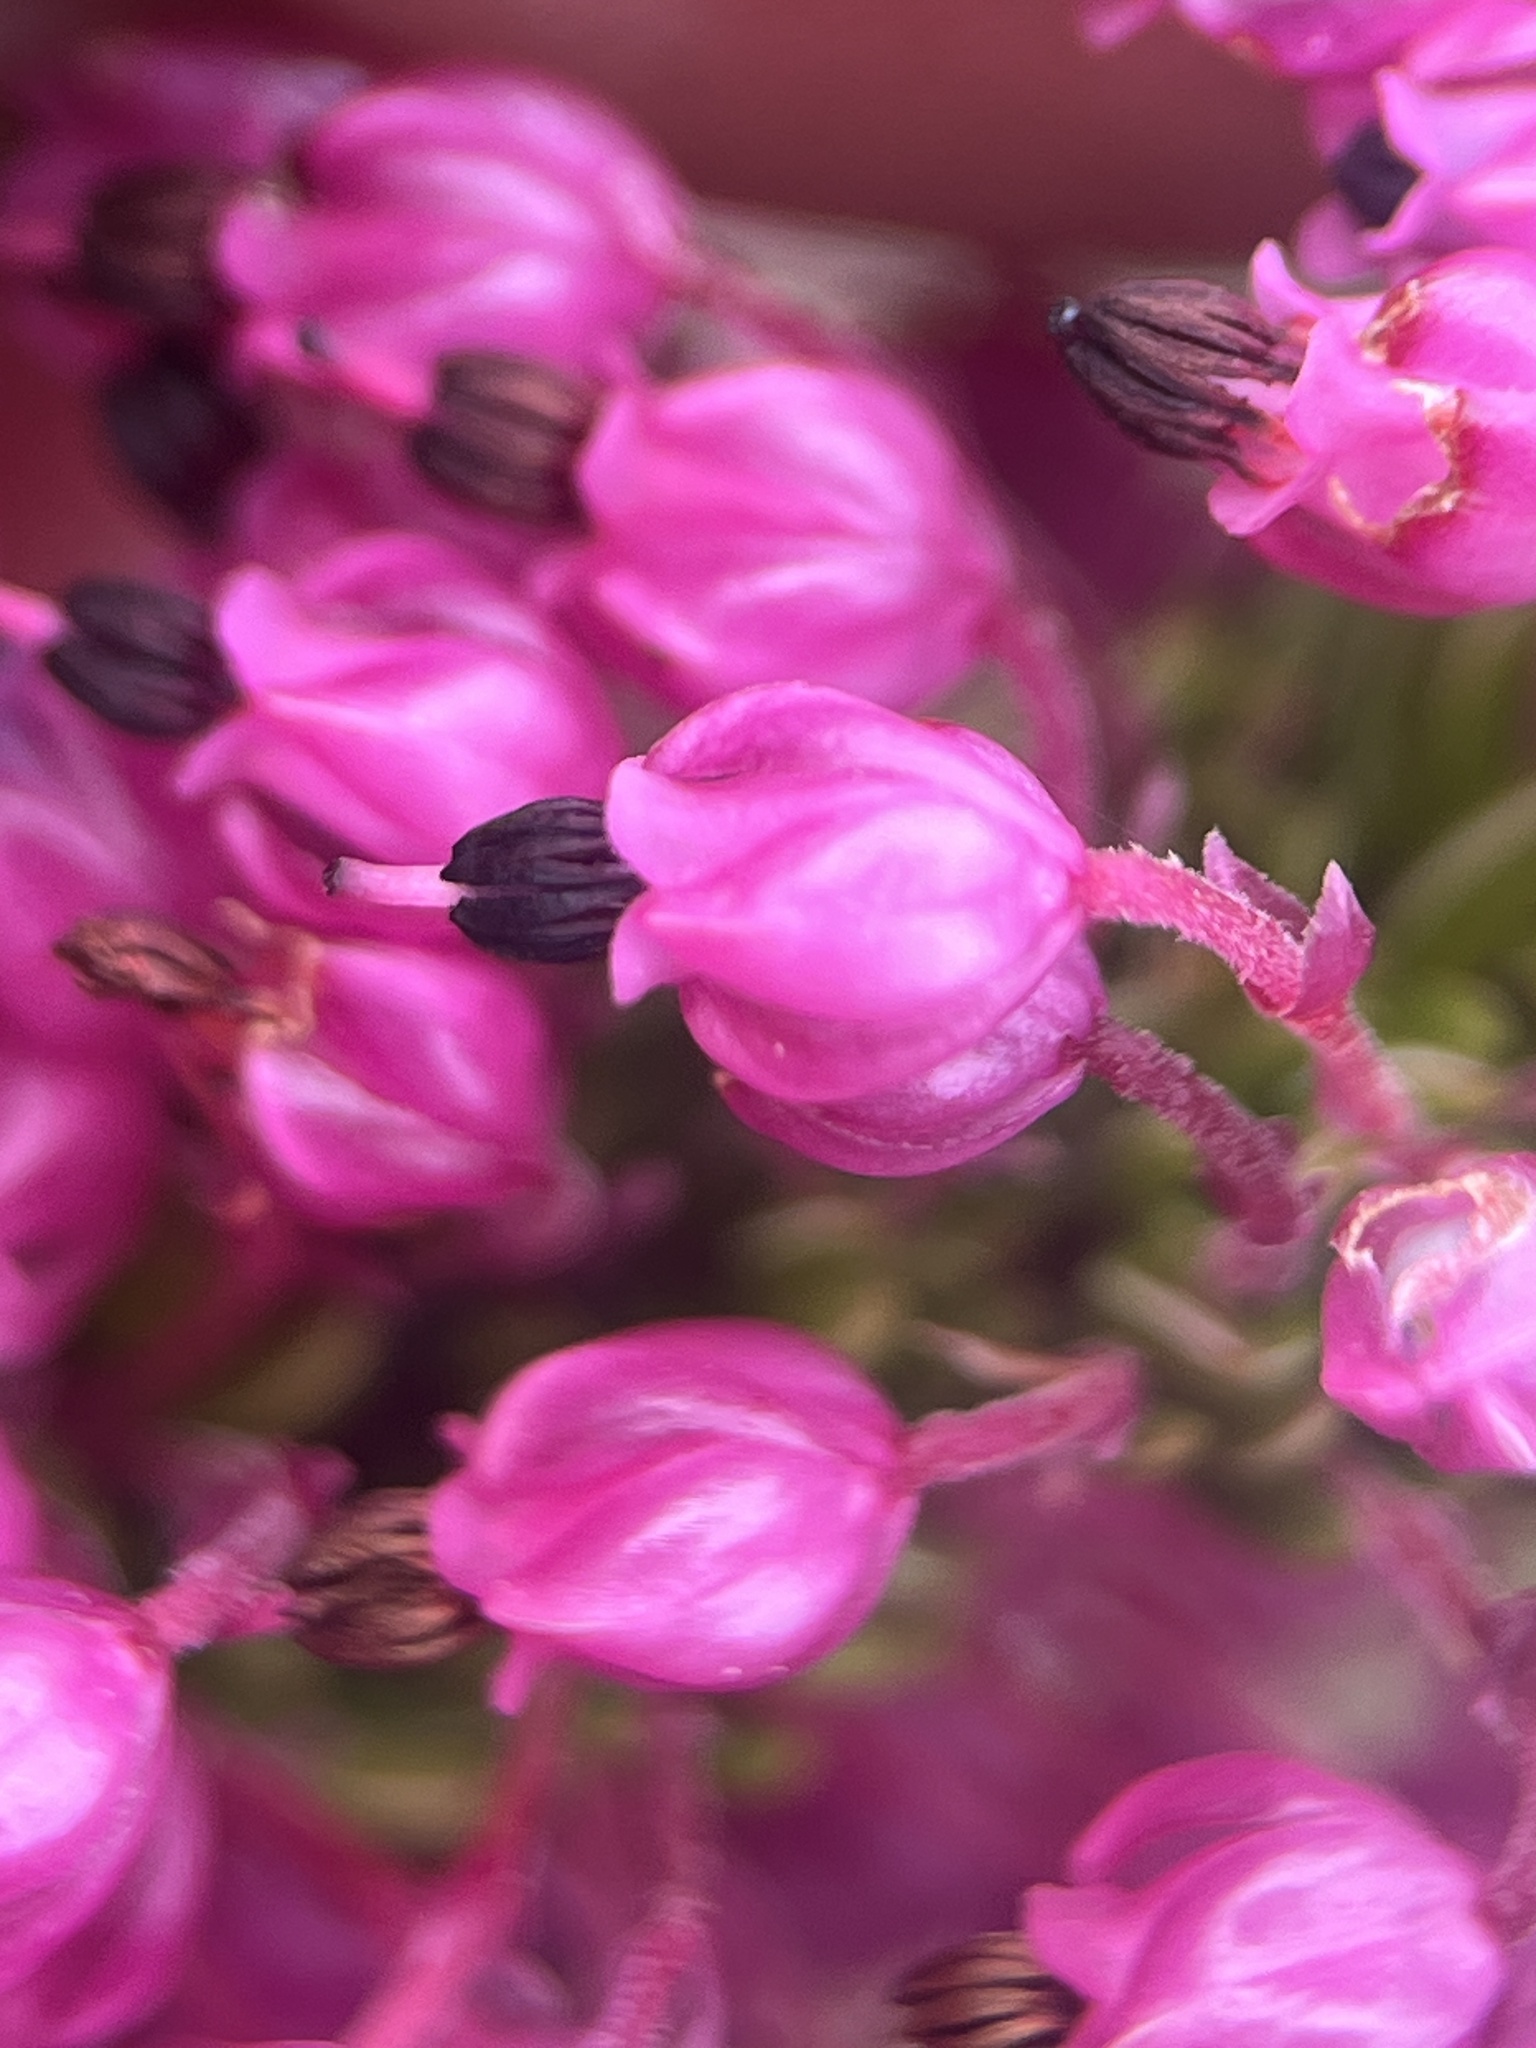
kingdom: Plantae
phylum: Tracheophyta
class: Magnoliopsida
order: Ericales
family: Ericaceae
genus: Erica
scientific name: Erica gracilipes
